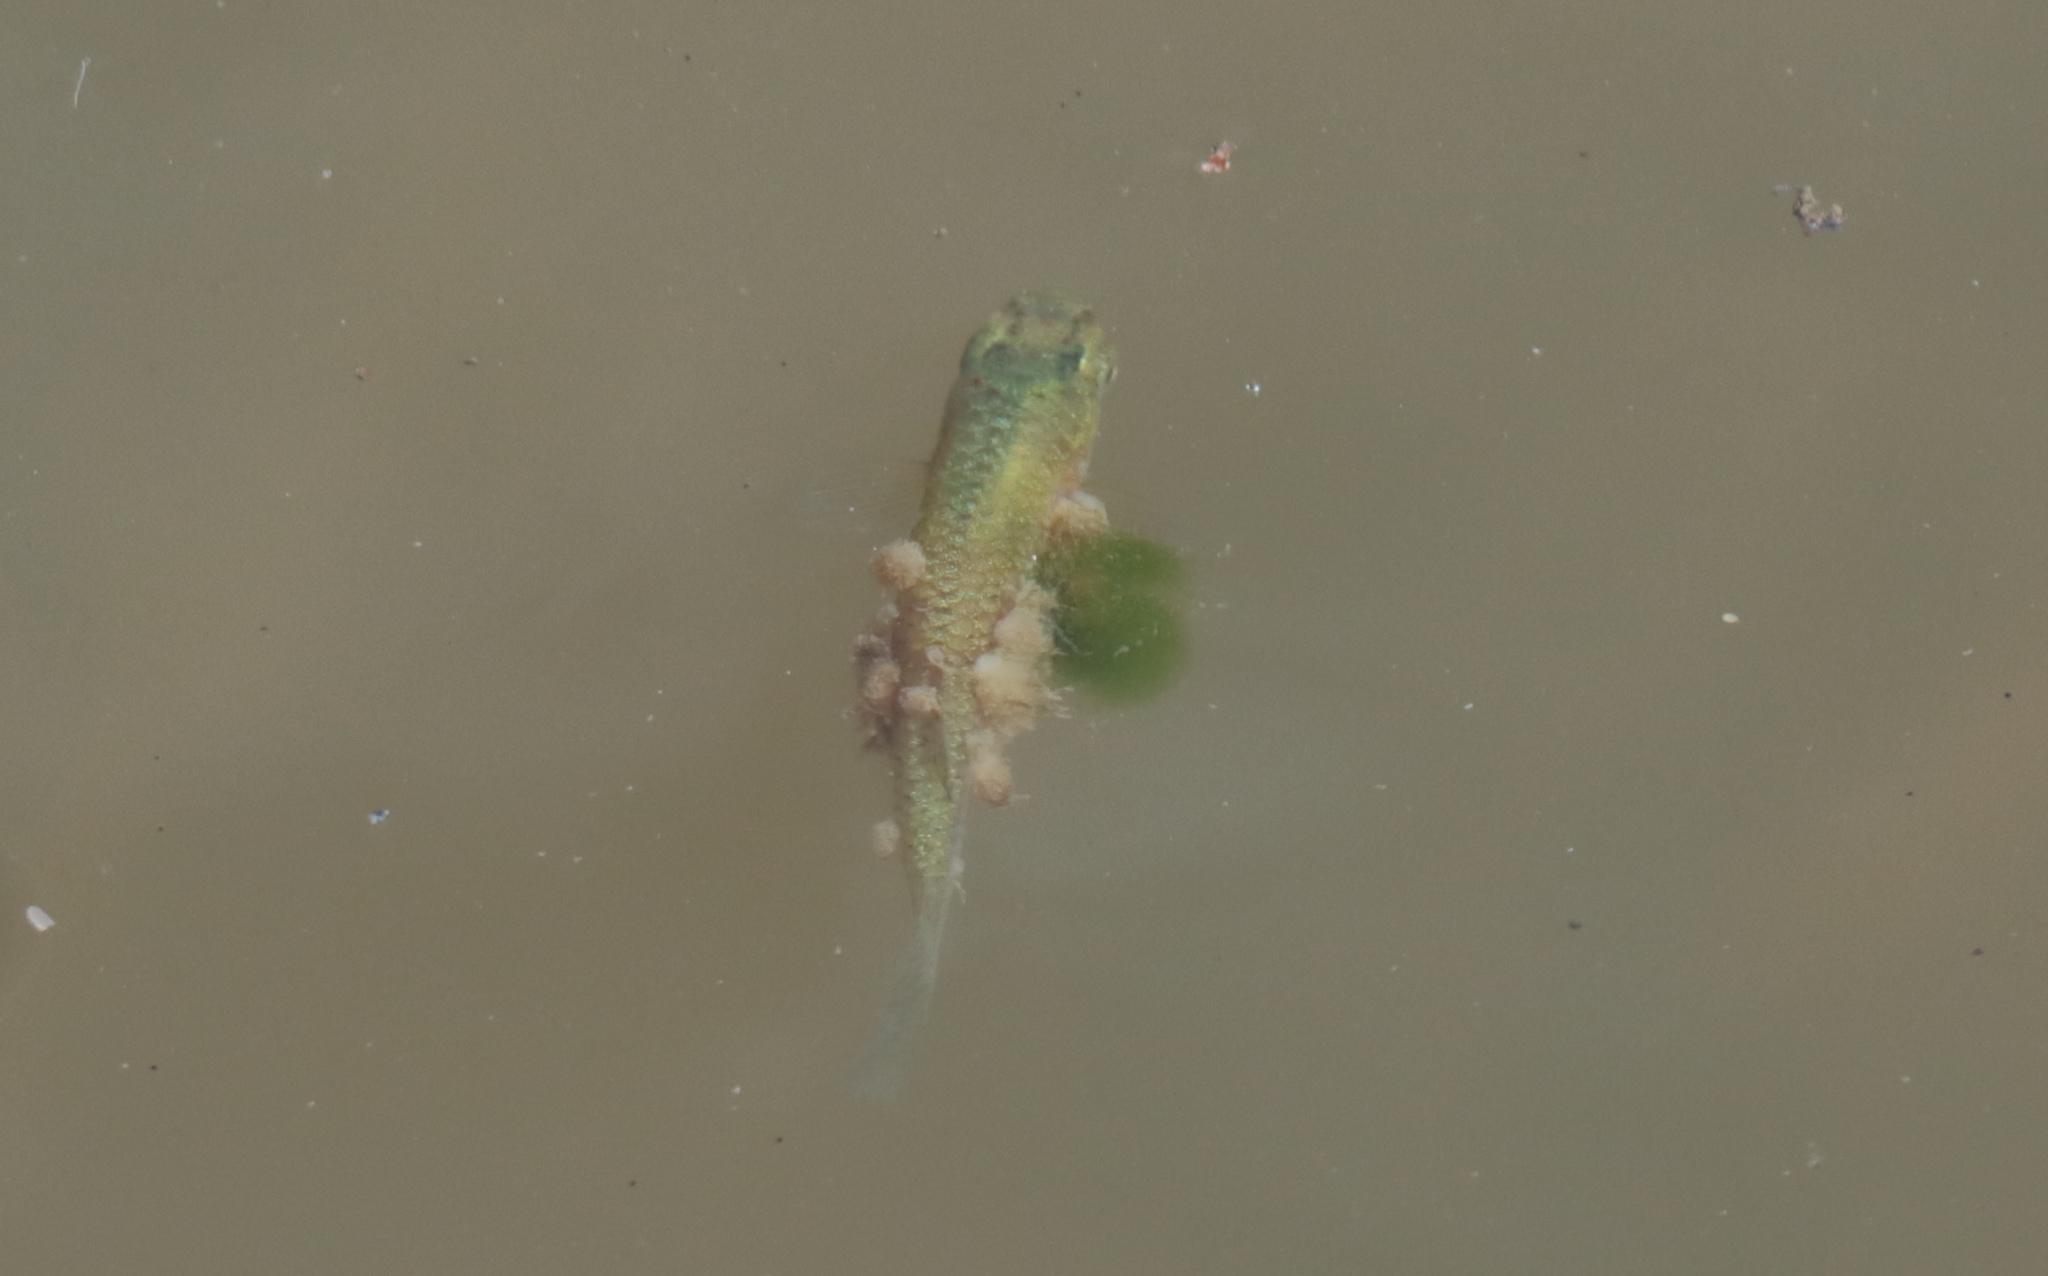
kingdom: Animalia
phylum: Chordata
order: Cyprinodontiformes
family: Poeciliidae
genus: Gambusia
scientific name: Gambusia holbrooki
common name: Eastern mosquitofish
